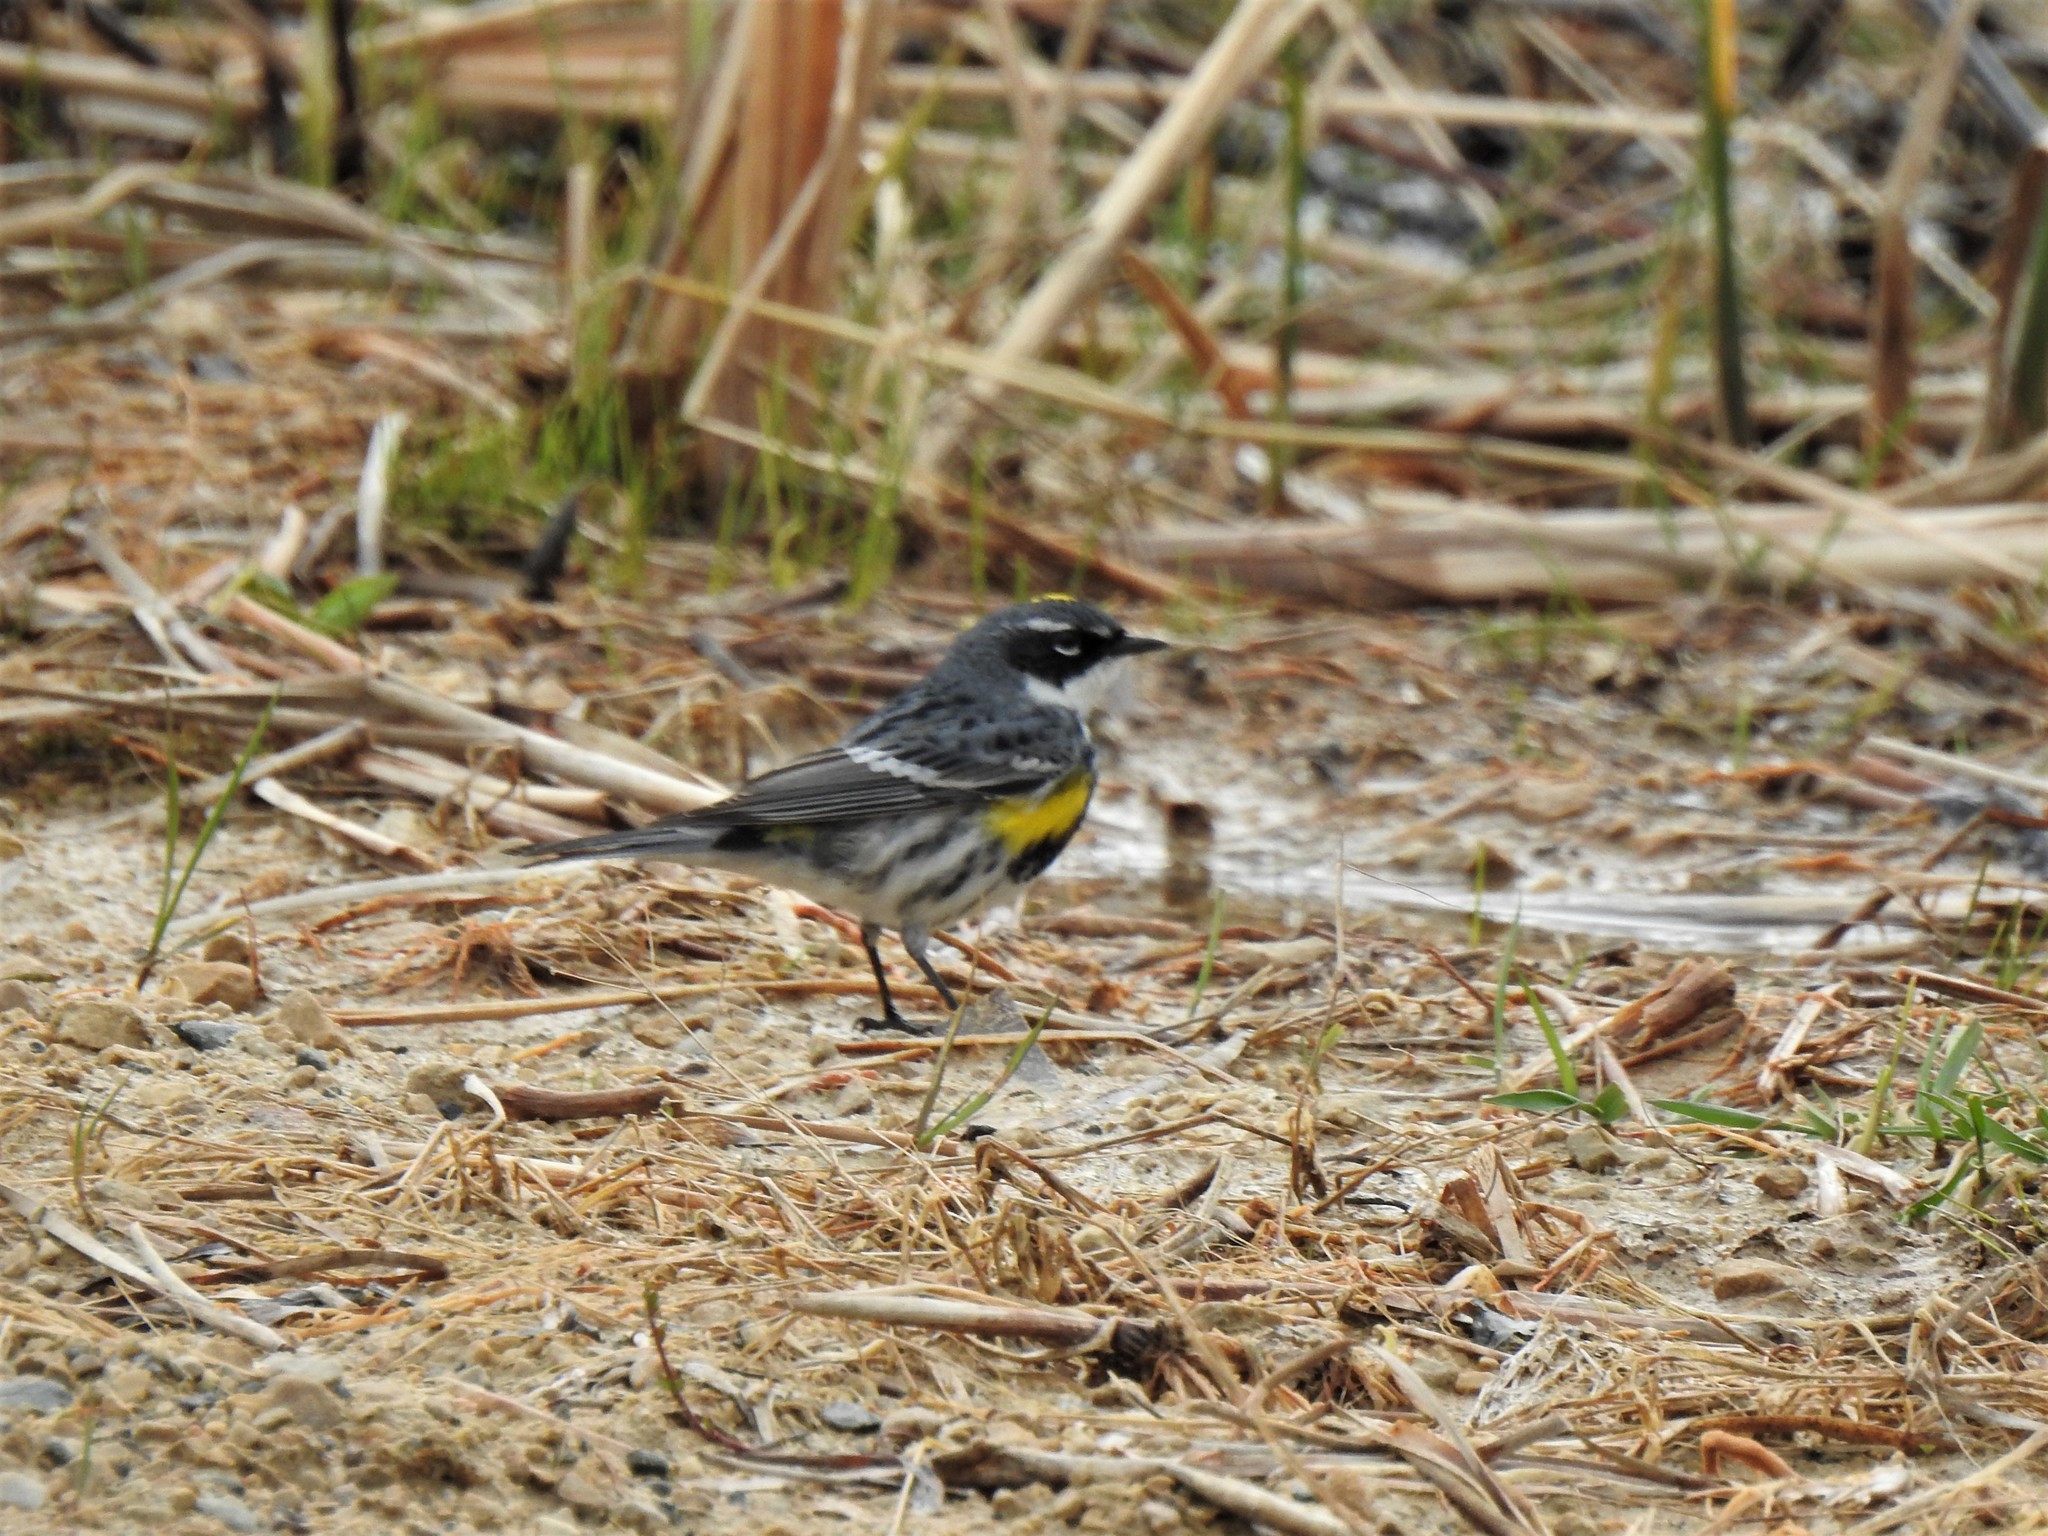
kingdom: Animalia
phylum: Chordata
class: Aves
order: Passeriformes
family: Parulidae
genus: Setophaga
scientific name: Setophaga coronata
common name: Myrtle warbler
